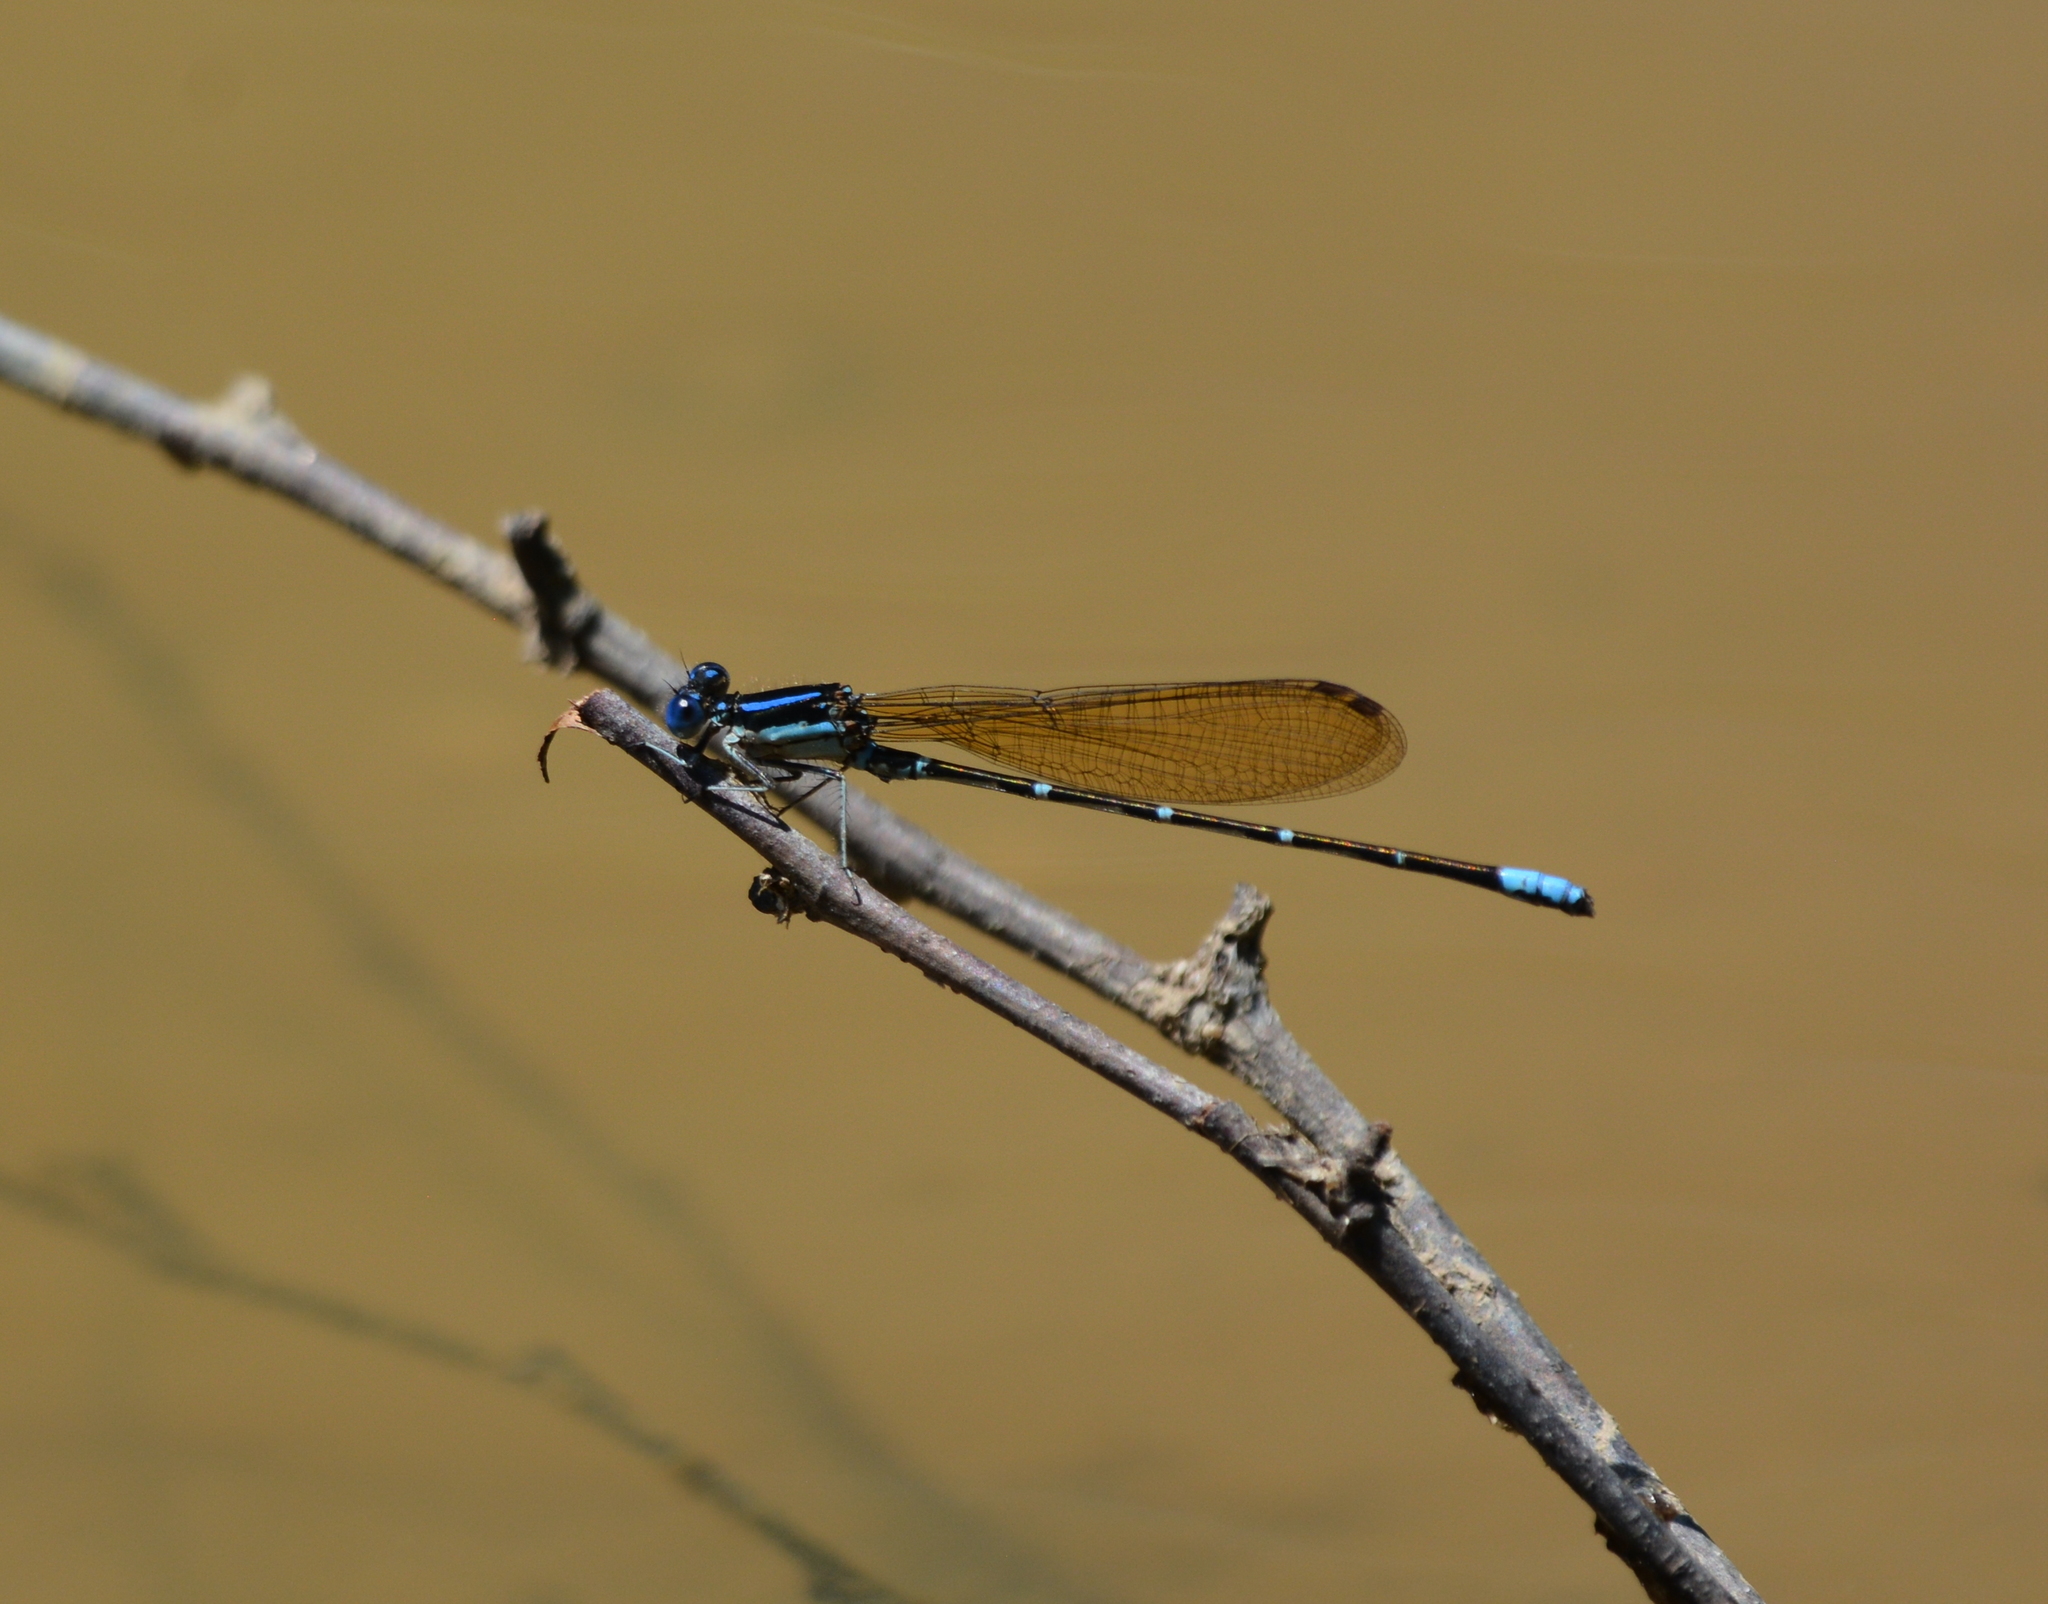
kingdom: Animalia
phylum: Arthropoda
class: Insecta
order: Odonata
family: Coenagrionidae
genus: Argia
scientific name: Argia sedula
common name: Blue-ringed dancer
